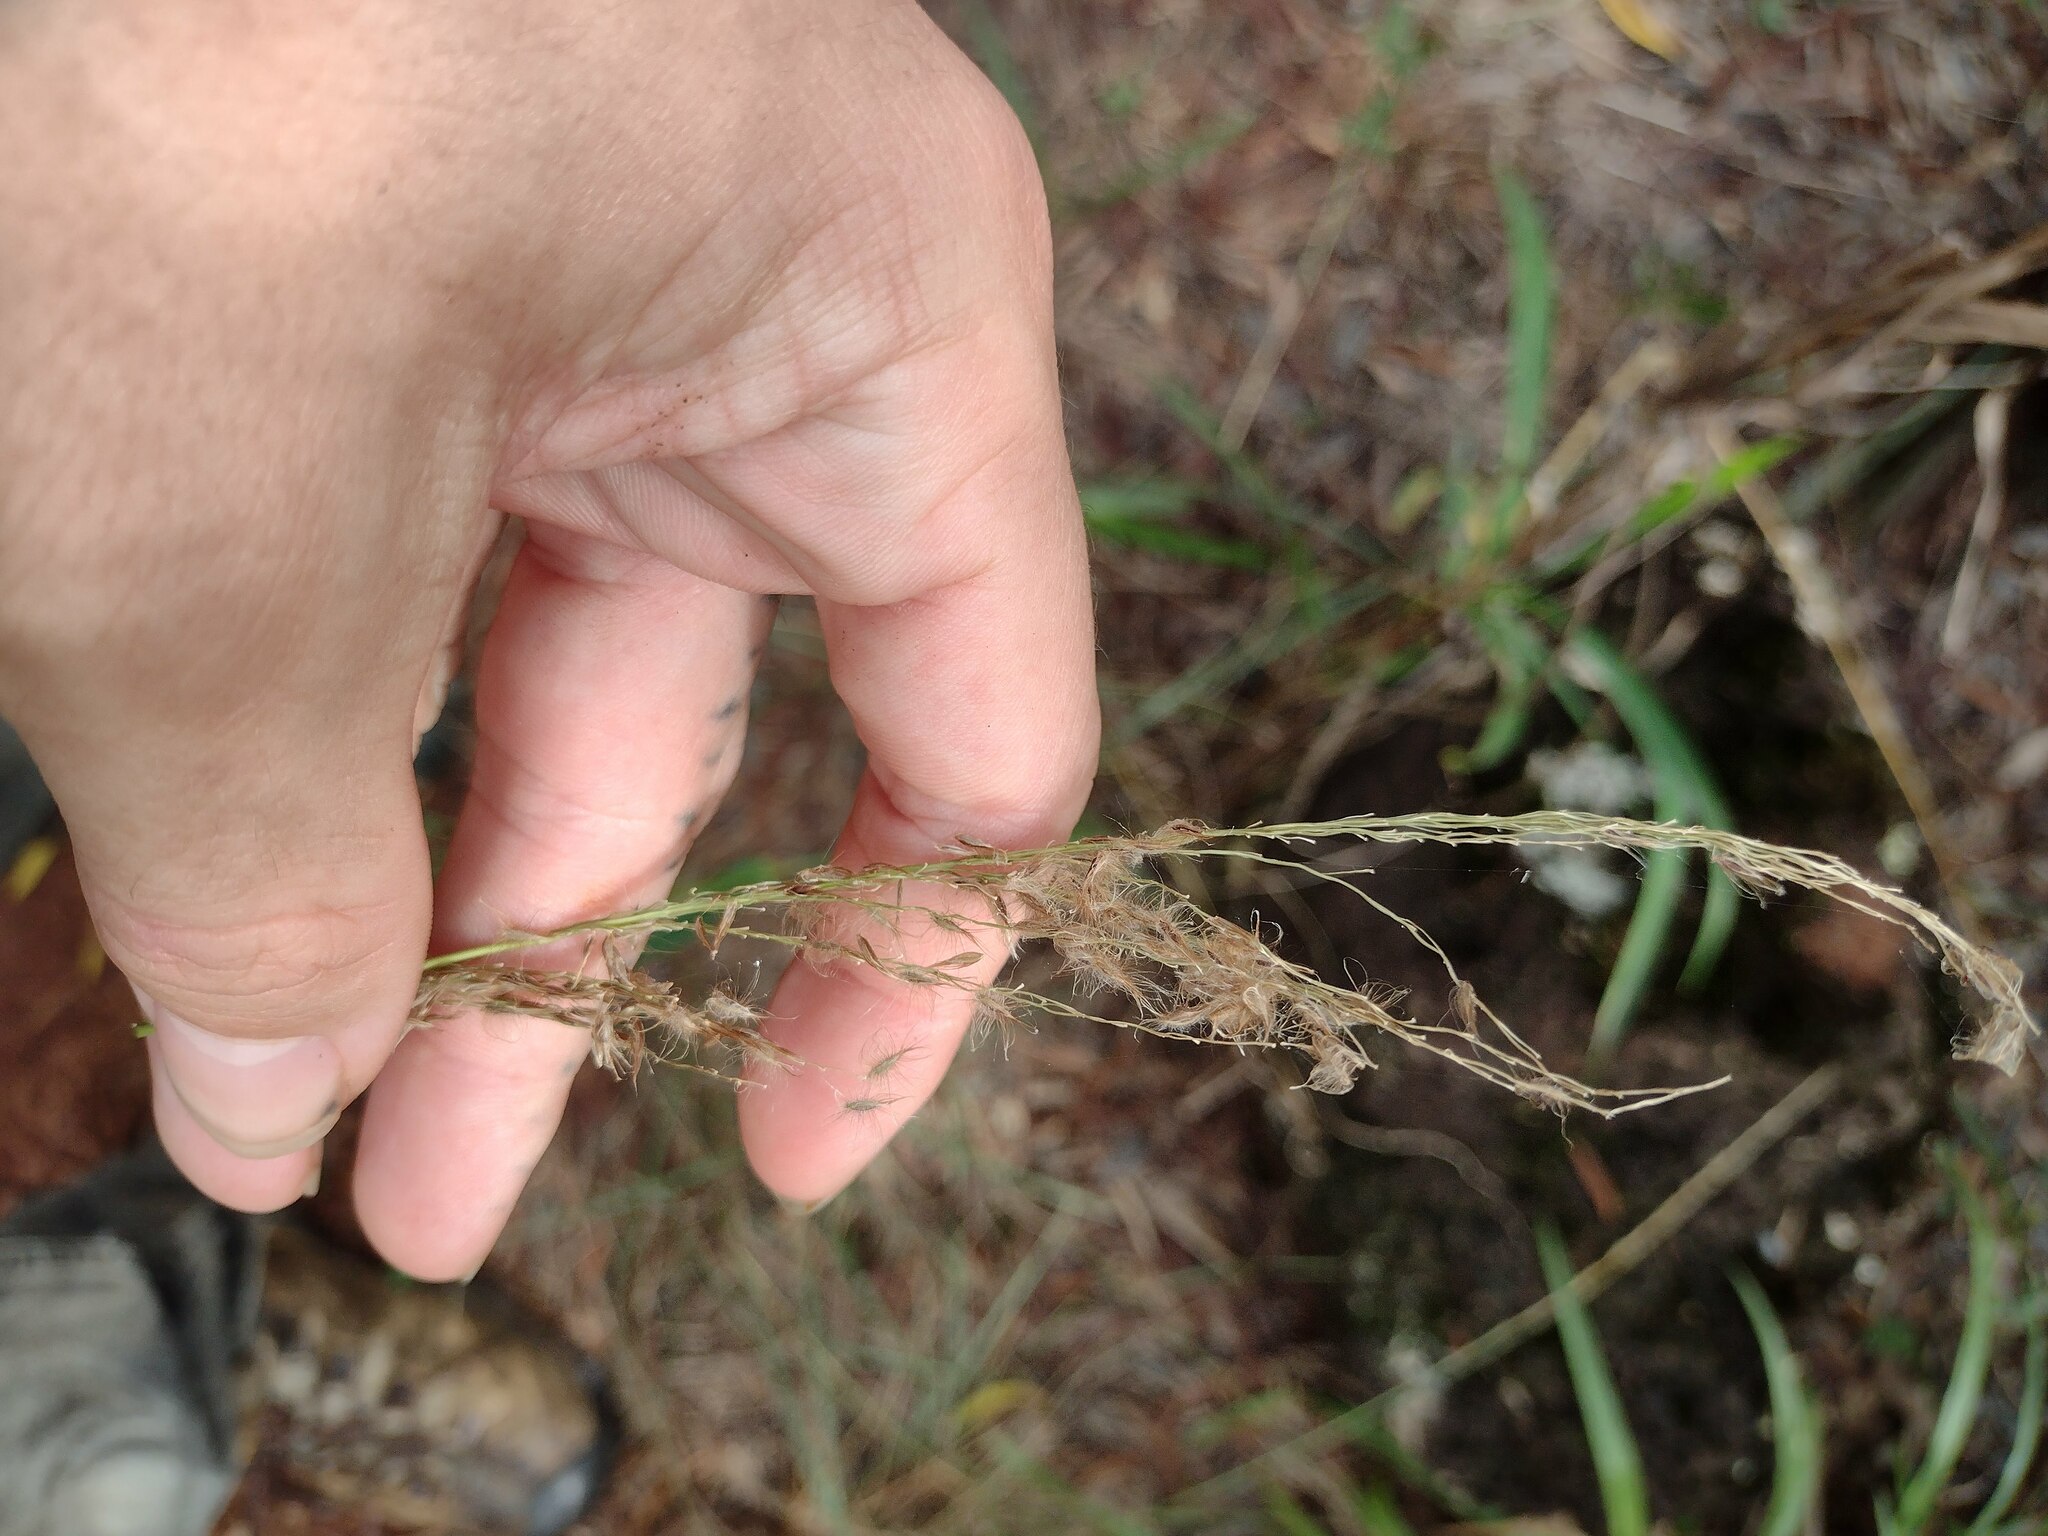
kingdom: Plantae
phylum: Tracheophyta
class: Liliopsida
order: Poales
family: Poaceae
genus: Digitaria
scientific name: Digitaria insularis
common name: Sourgrass
